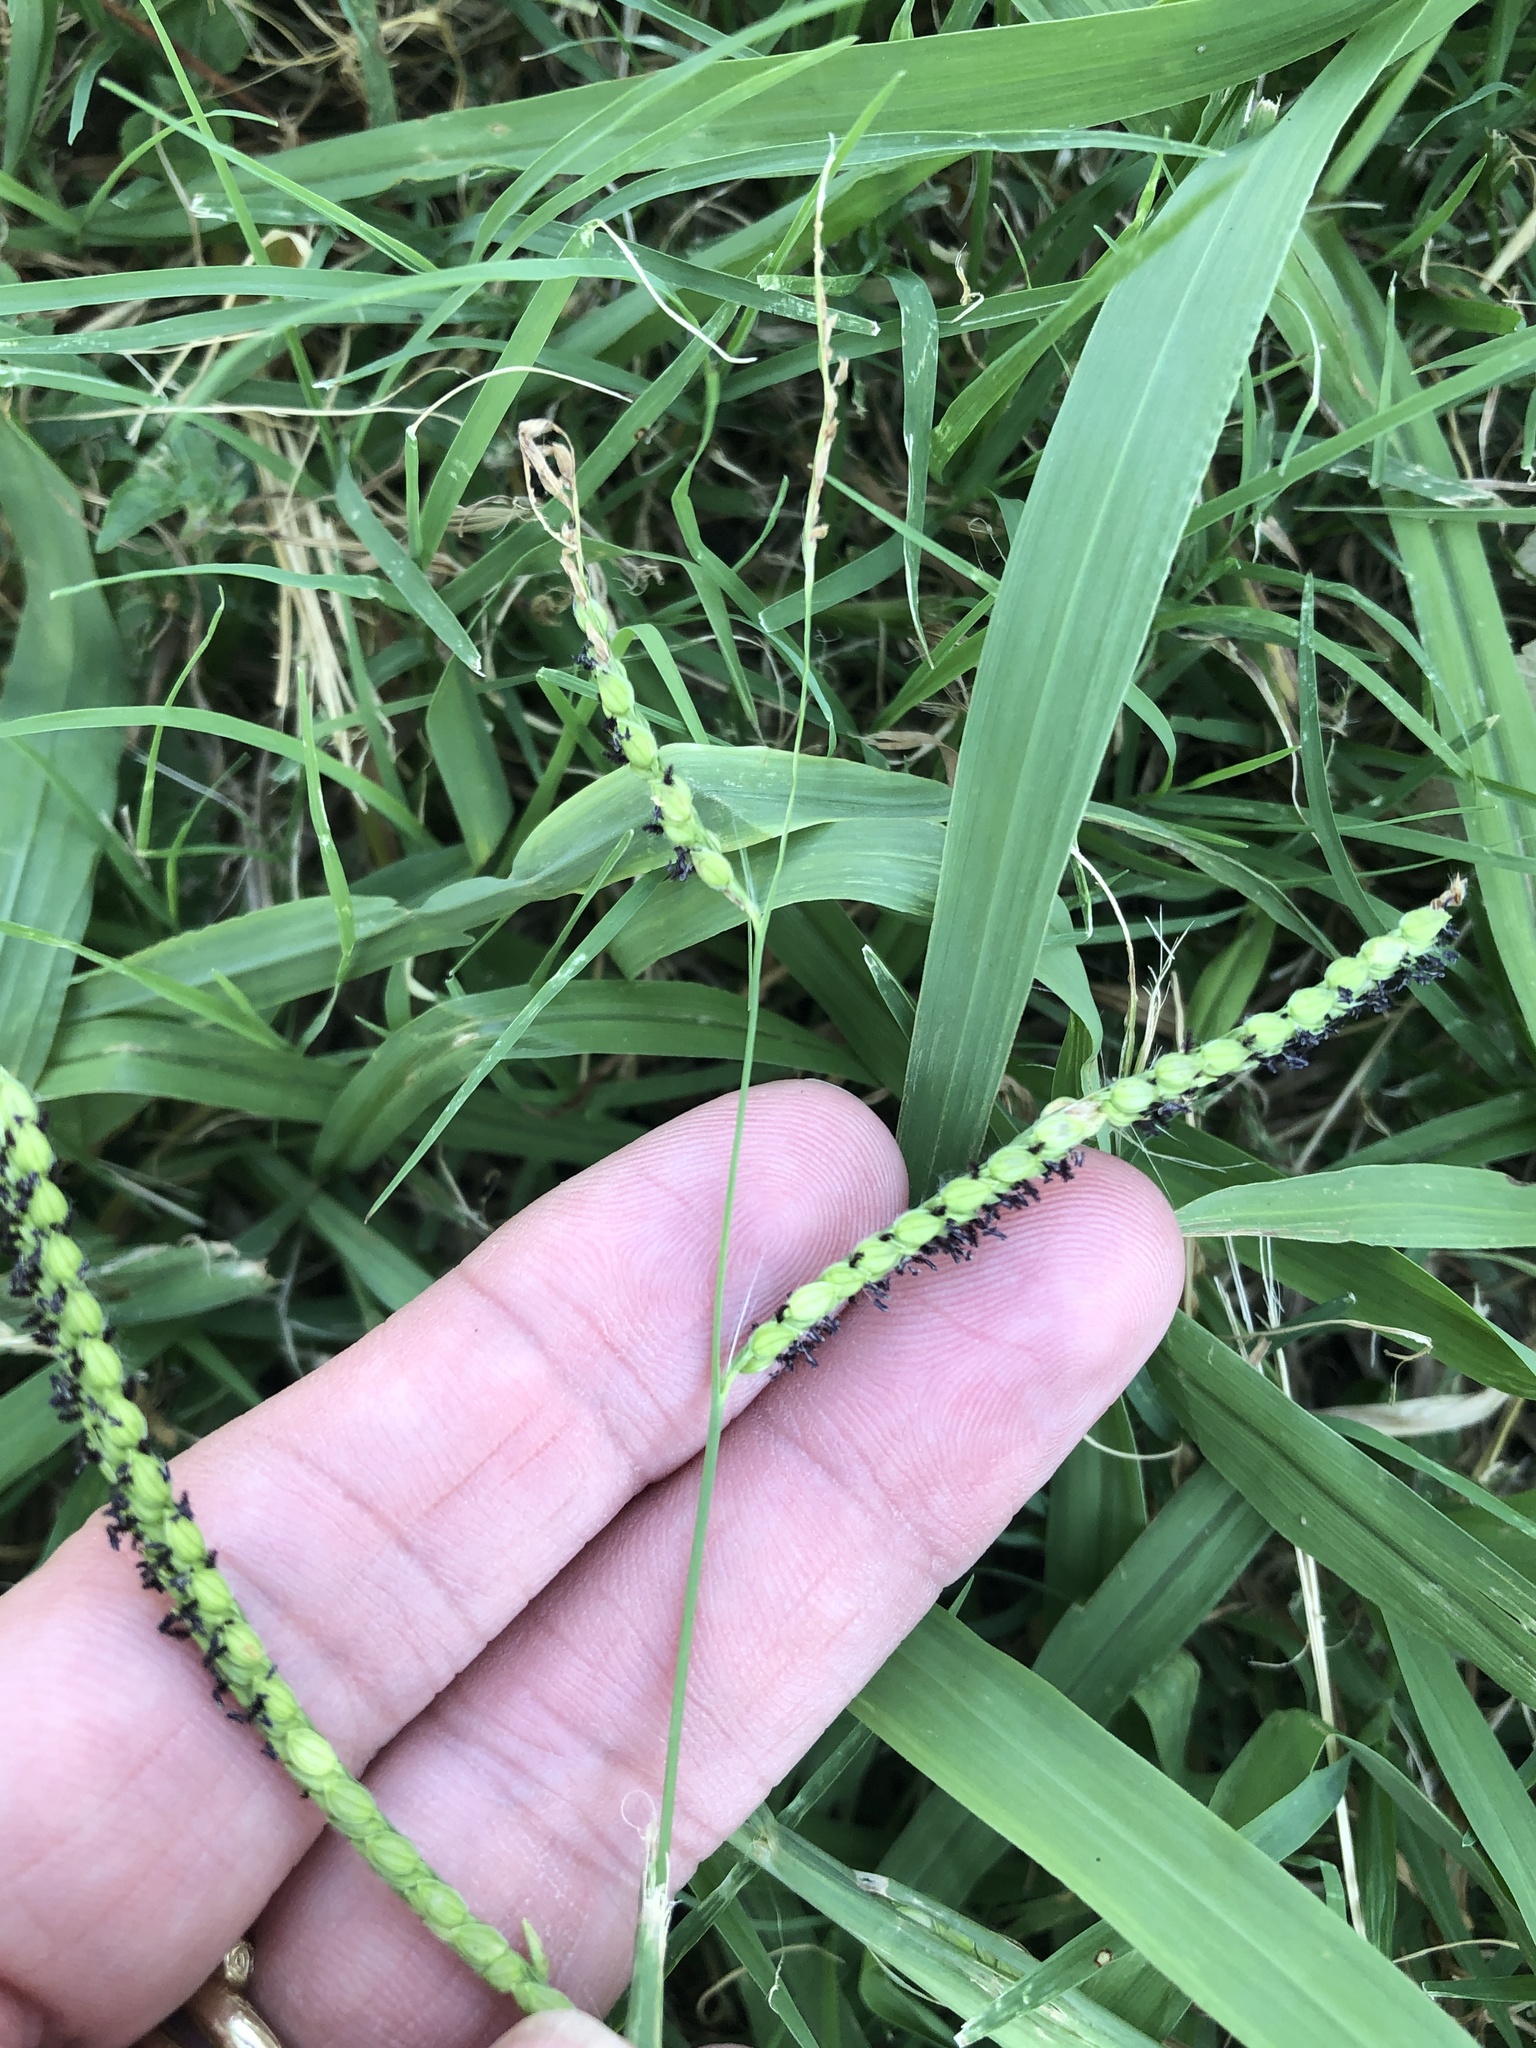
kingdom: Plantae
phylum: Tracheophyta
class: Liliopsida
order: Poales
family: Poaceae
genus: Paspalum
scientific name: Paspalum dilatatum
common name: Dallisgrass
